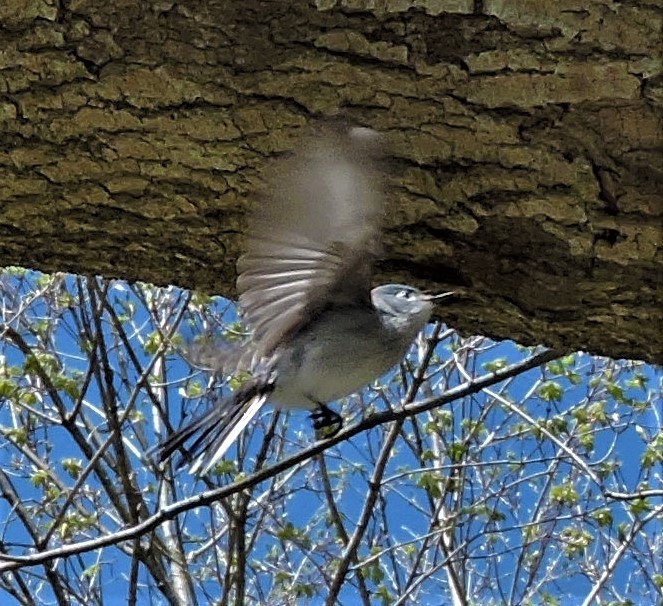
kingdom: Animalia
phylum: Chordata
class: Aves
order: Passeriformes
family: Polioptilidae
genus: Polioptila
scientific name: Polioptila caerulea
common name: Blue-gray gnatcatcher
